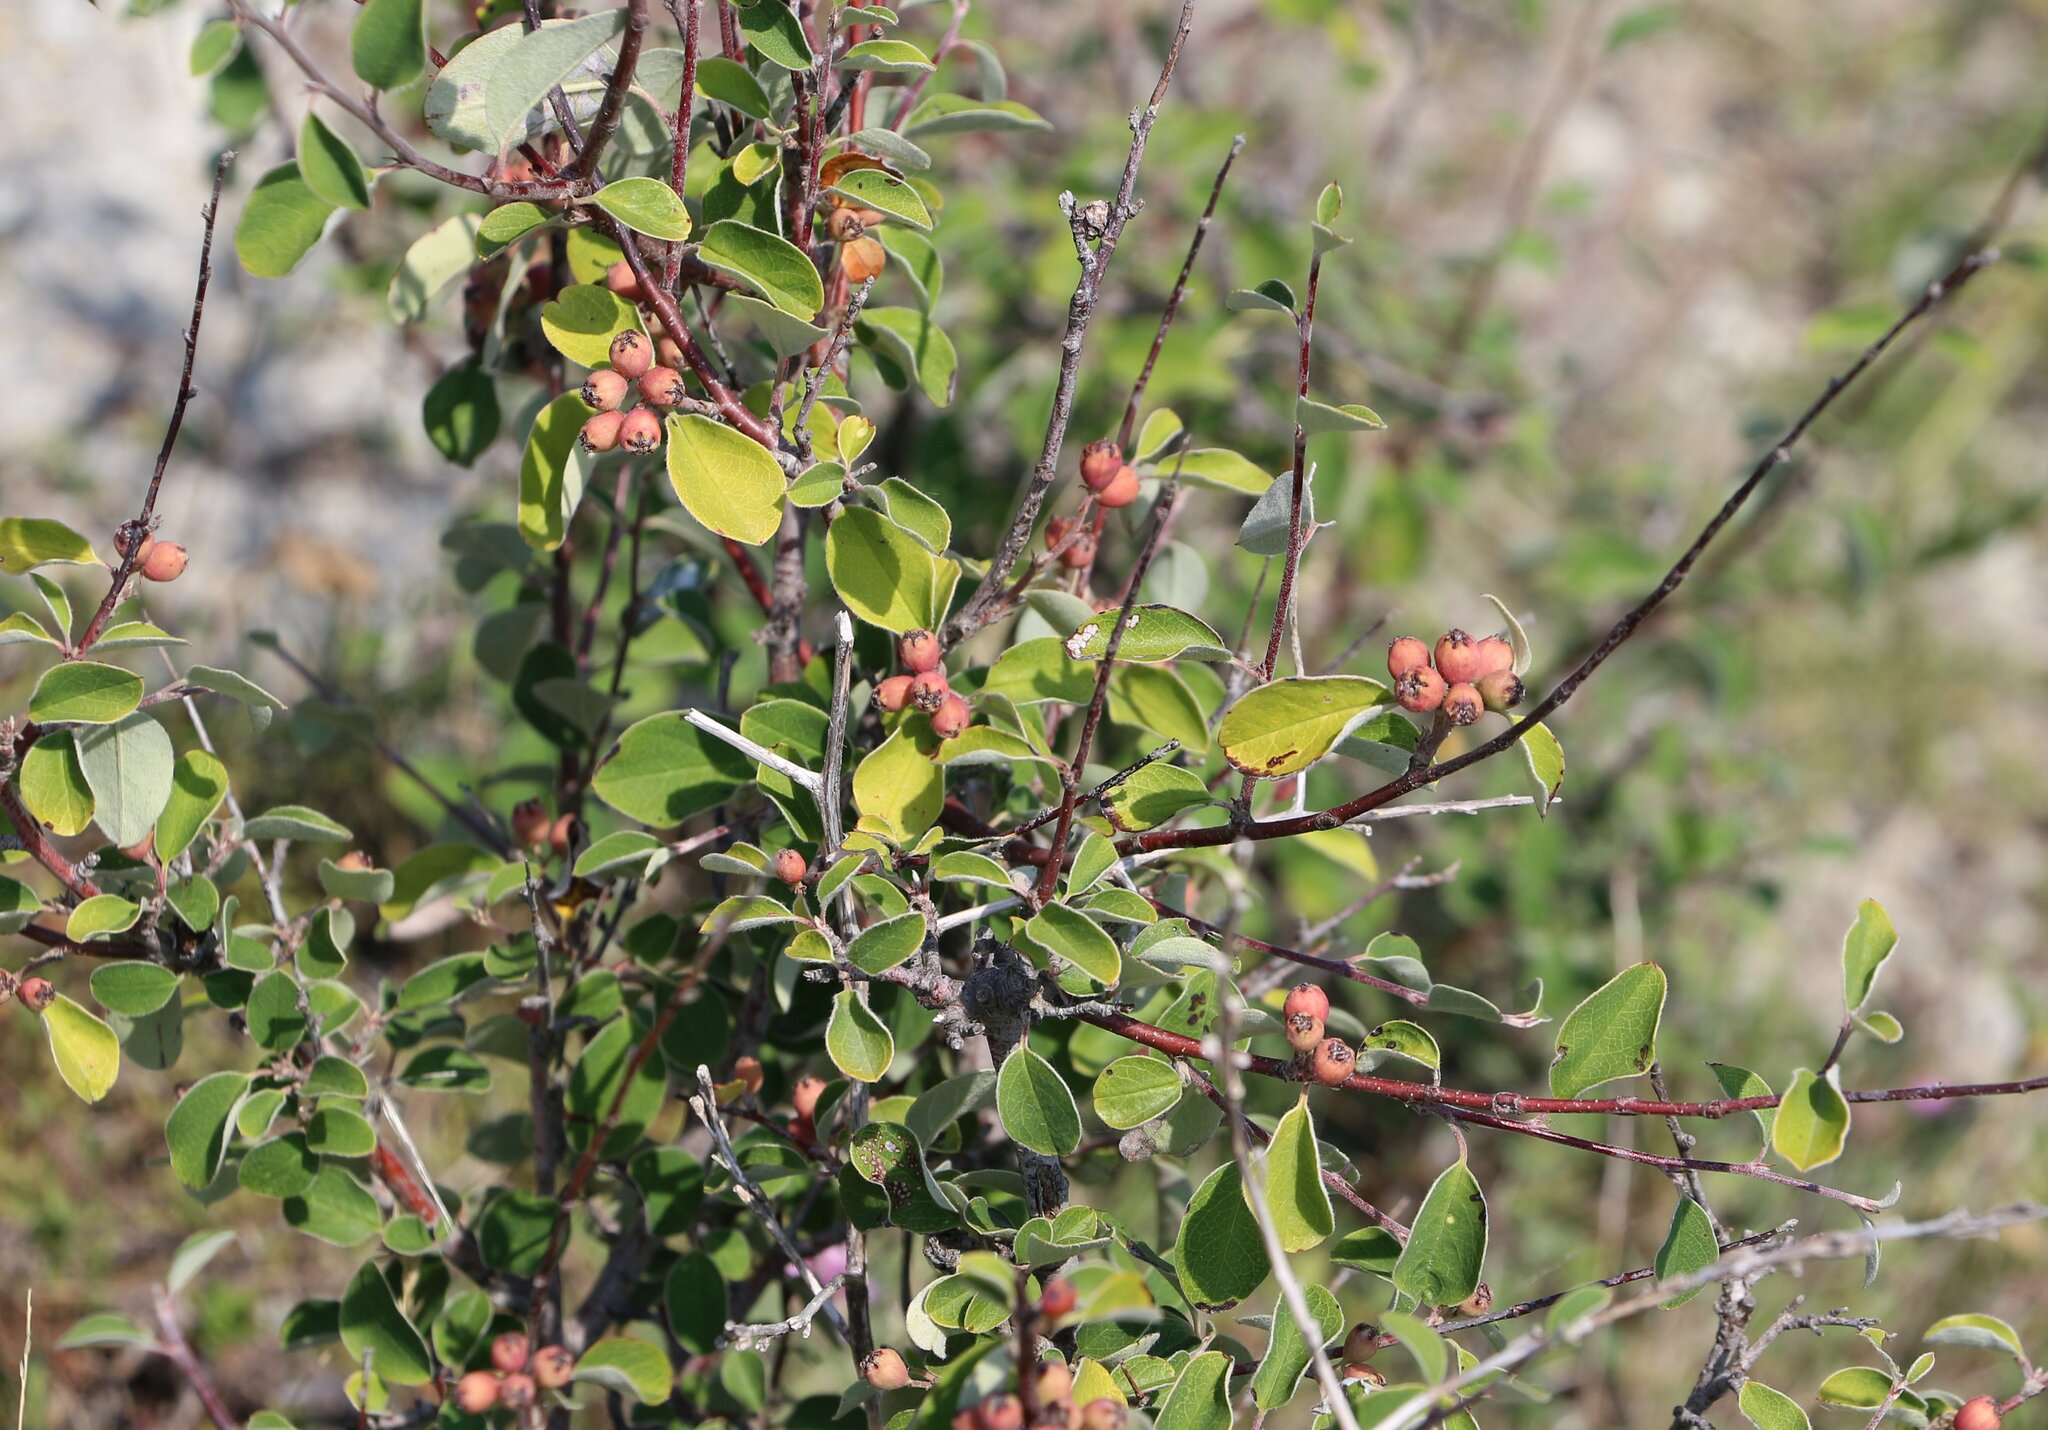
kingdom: Plantae
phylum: Tracheophyta
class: Magnoliopsida
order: Rosales
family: Rosaceae
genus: Cotoneaster
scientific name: Cotoneaster suavis
